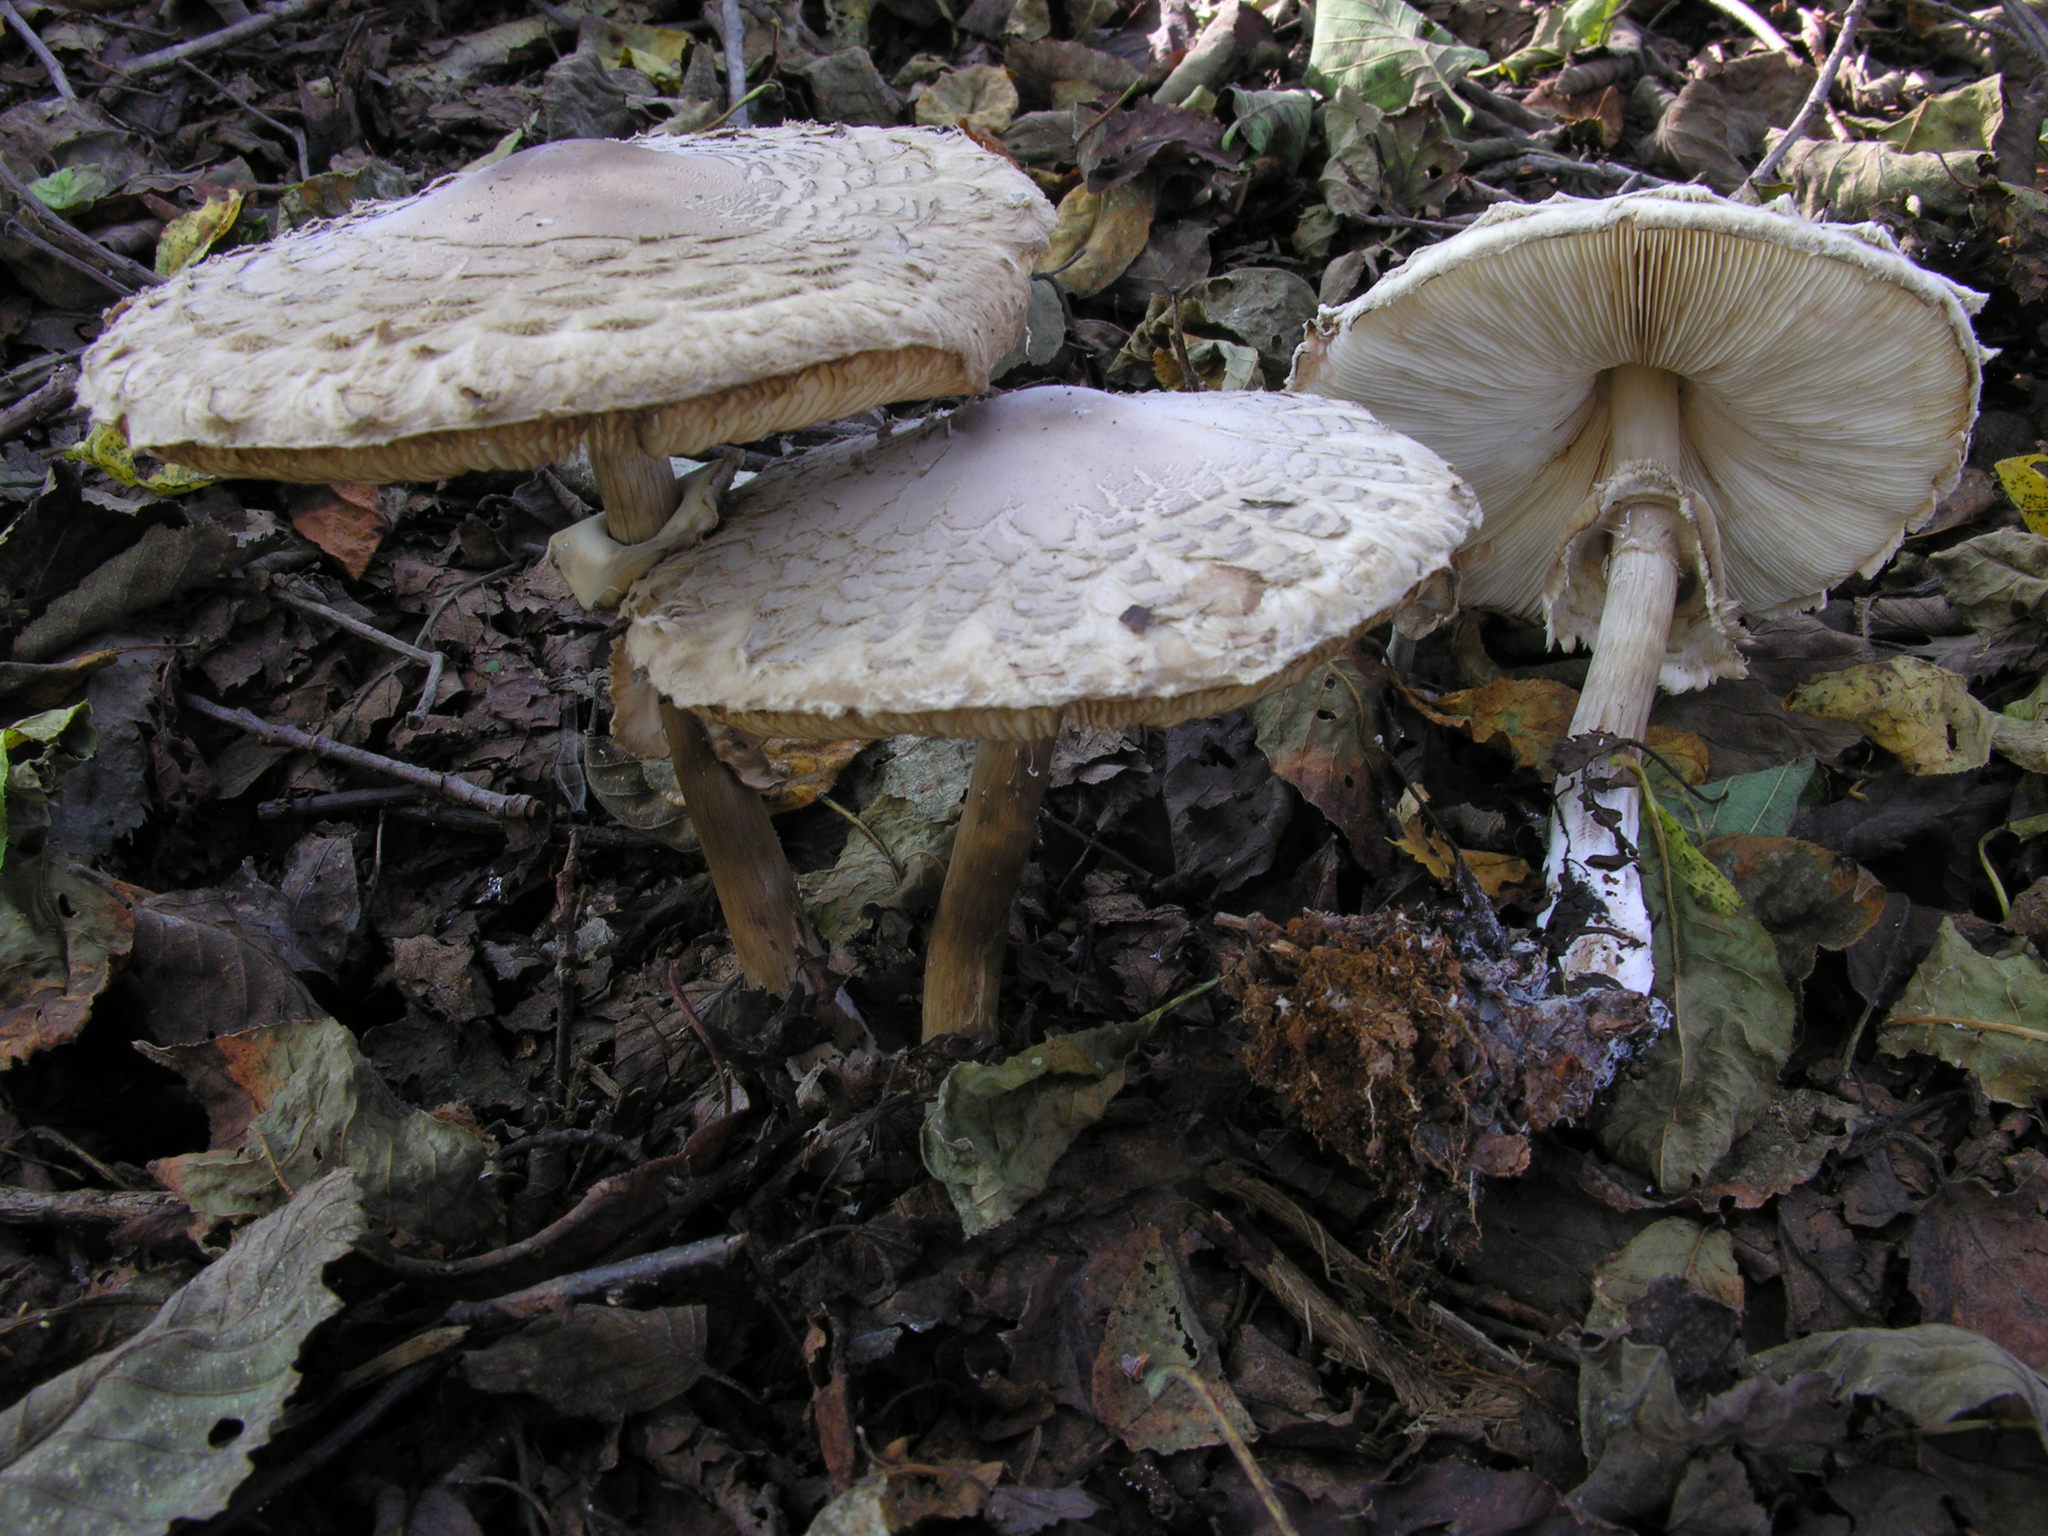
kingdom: Fungi
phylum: Basidiomycota
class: Agaricomycetes
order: Agaricales
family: Agaricaceae
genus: Chlorophyllum
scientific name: Chlorophyllum olivieri
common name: Conifer parasol
